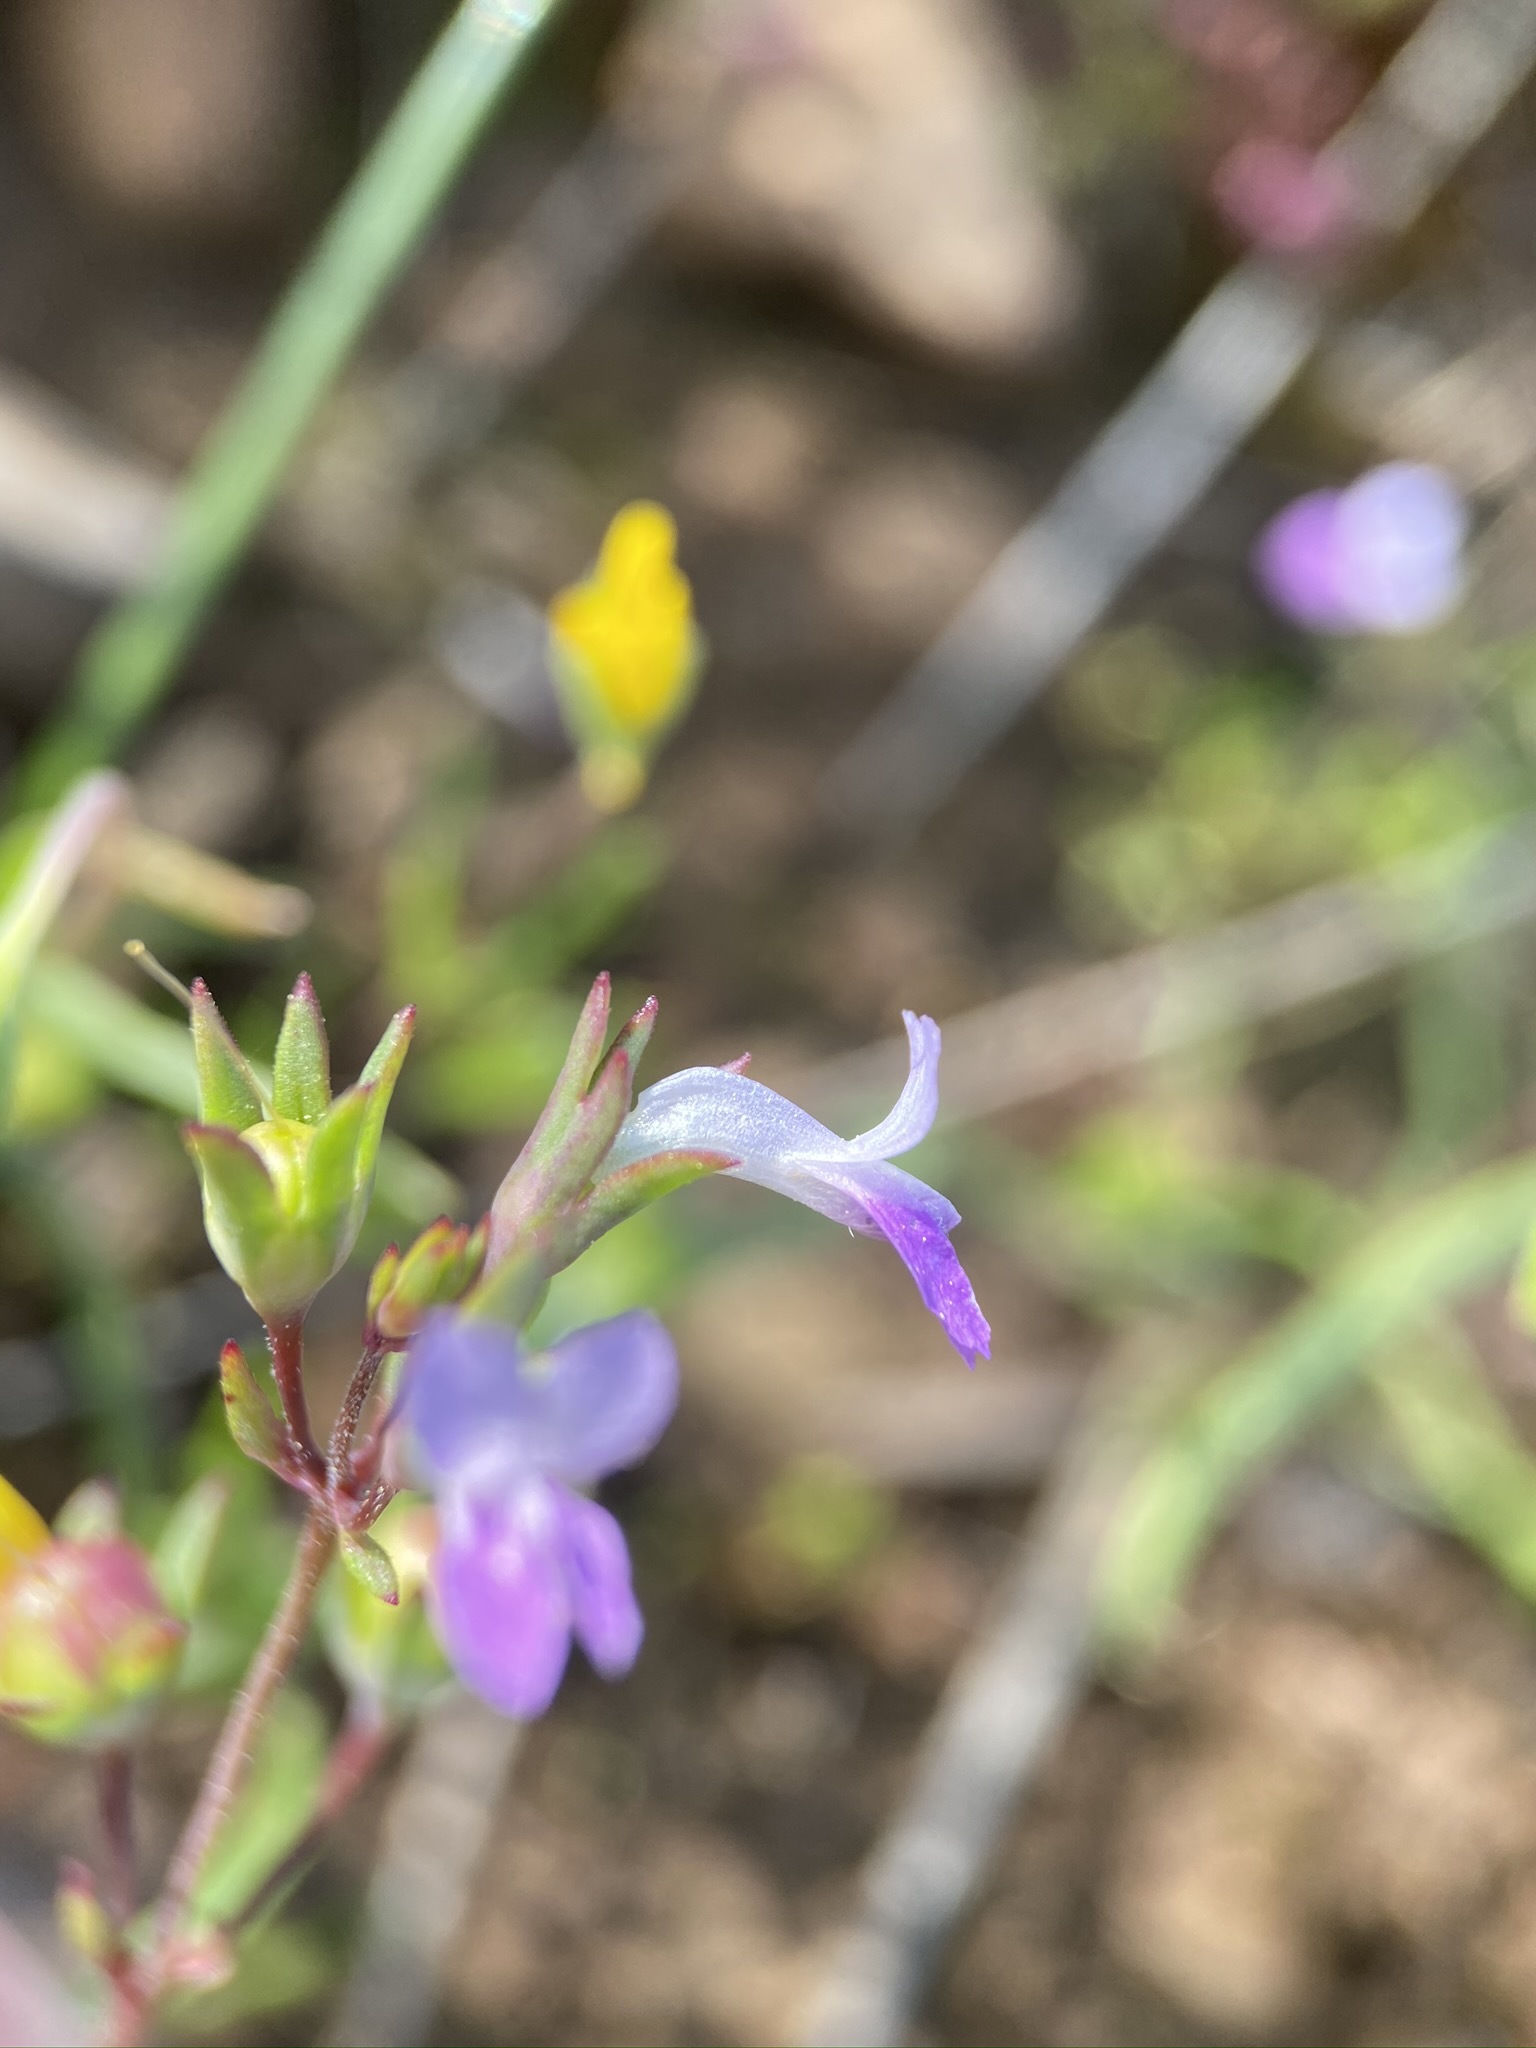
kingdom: Plantae
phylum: Tracheophyta
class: Magnoliopsida
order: Lamiales
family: Plantaginaceae
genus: Collinsia
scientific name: Collinsia sparsiflora
